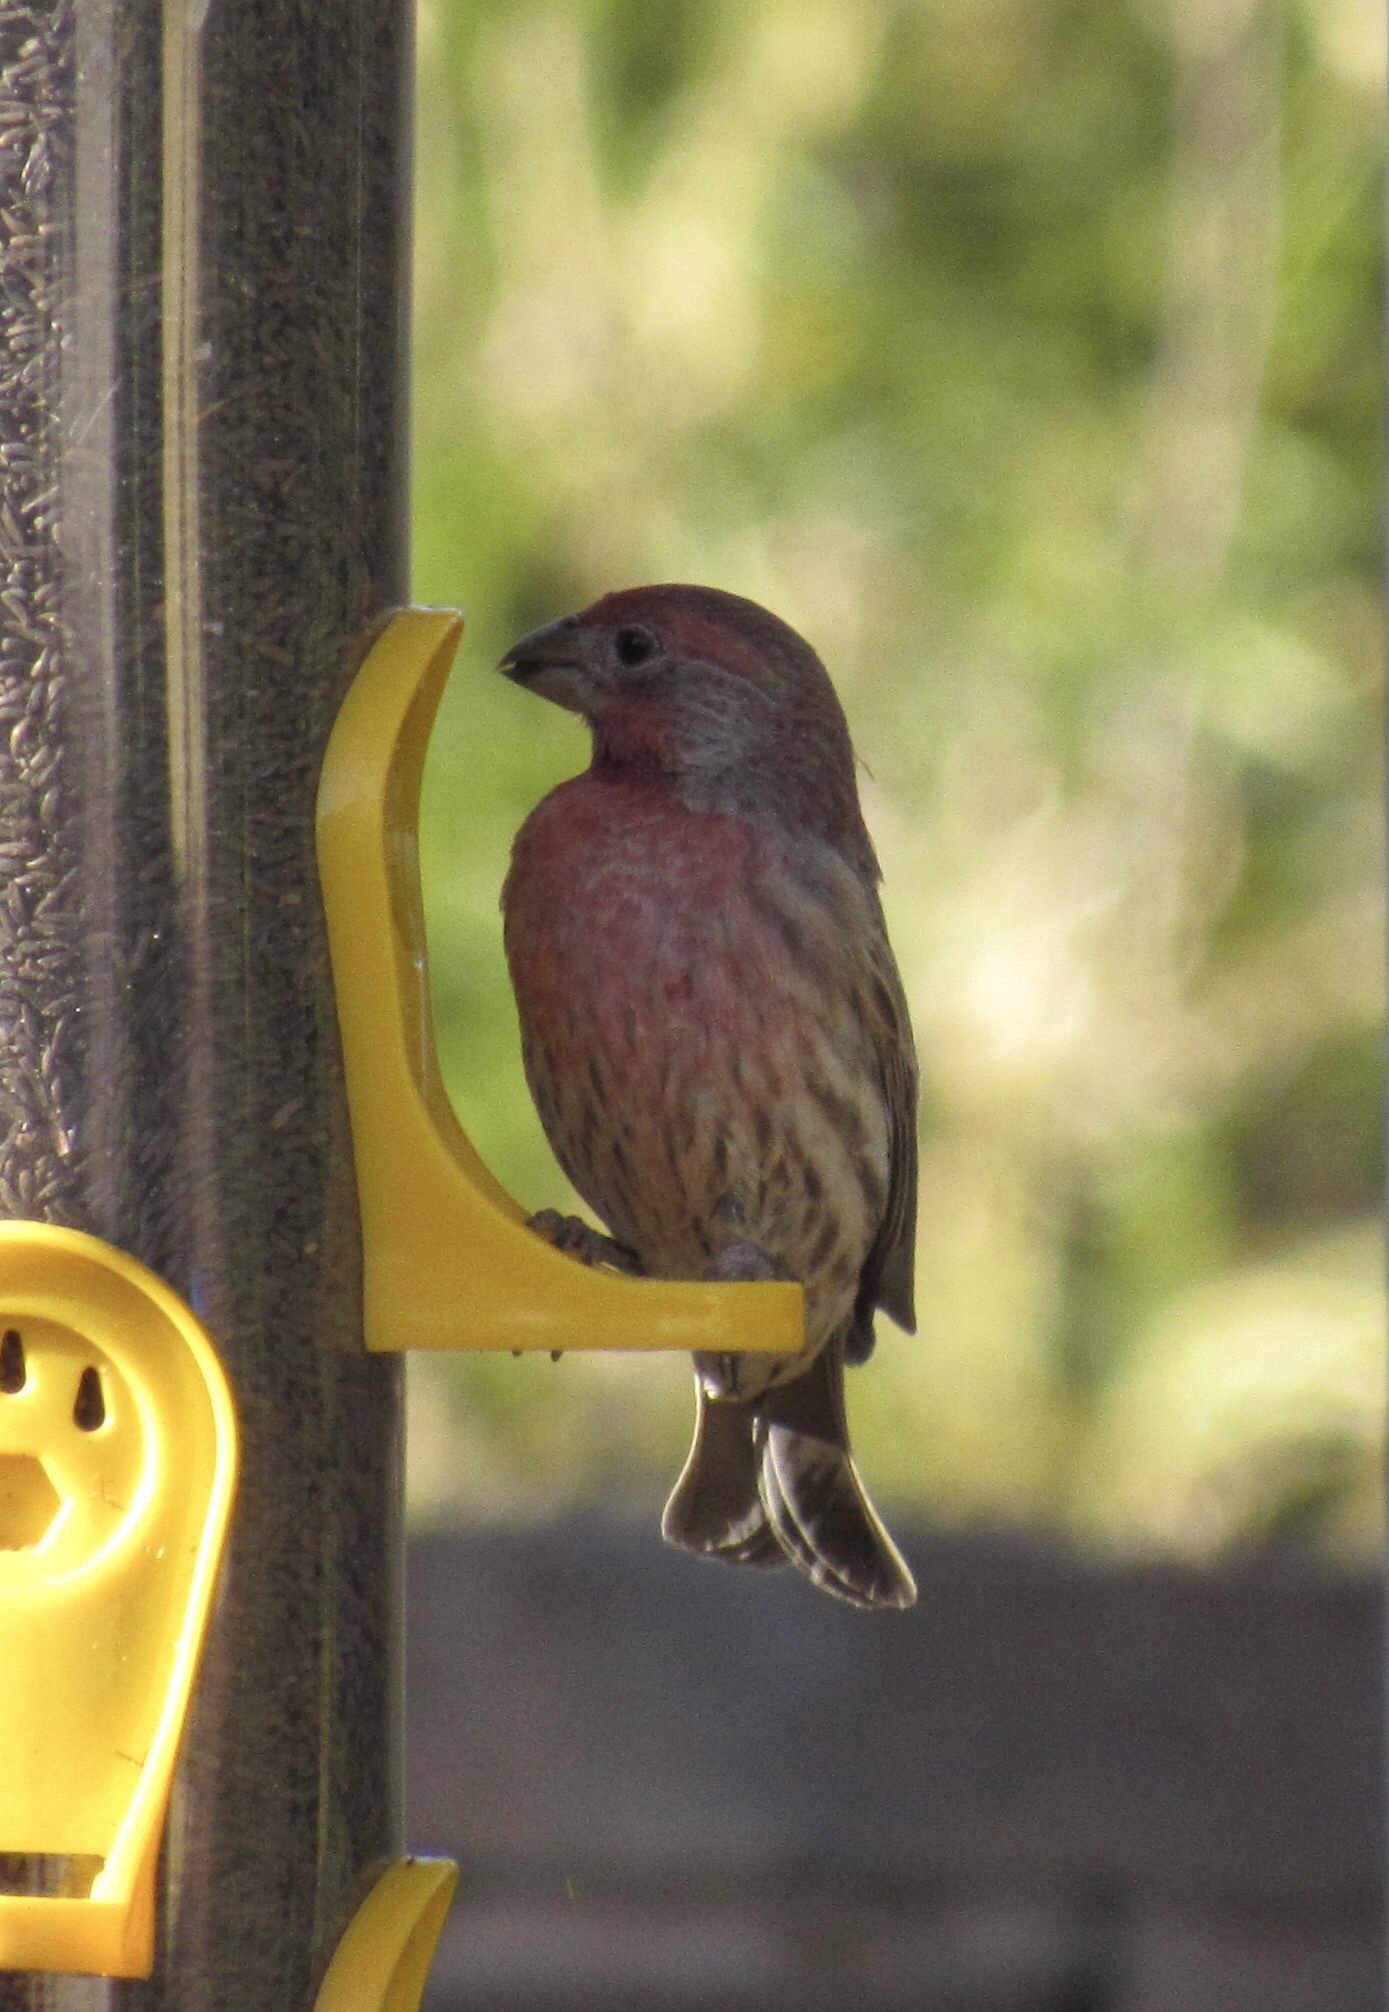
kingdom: Animalia
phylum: Chordata
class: Aves
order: Passeriformes
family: Fringillidae
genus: Haemorhous
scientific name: Haemorhous mexicanus
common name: House finch
